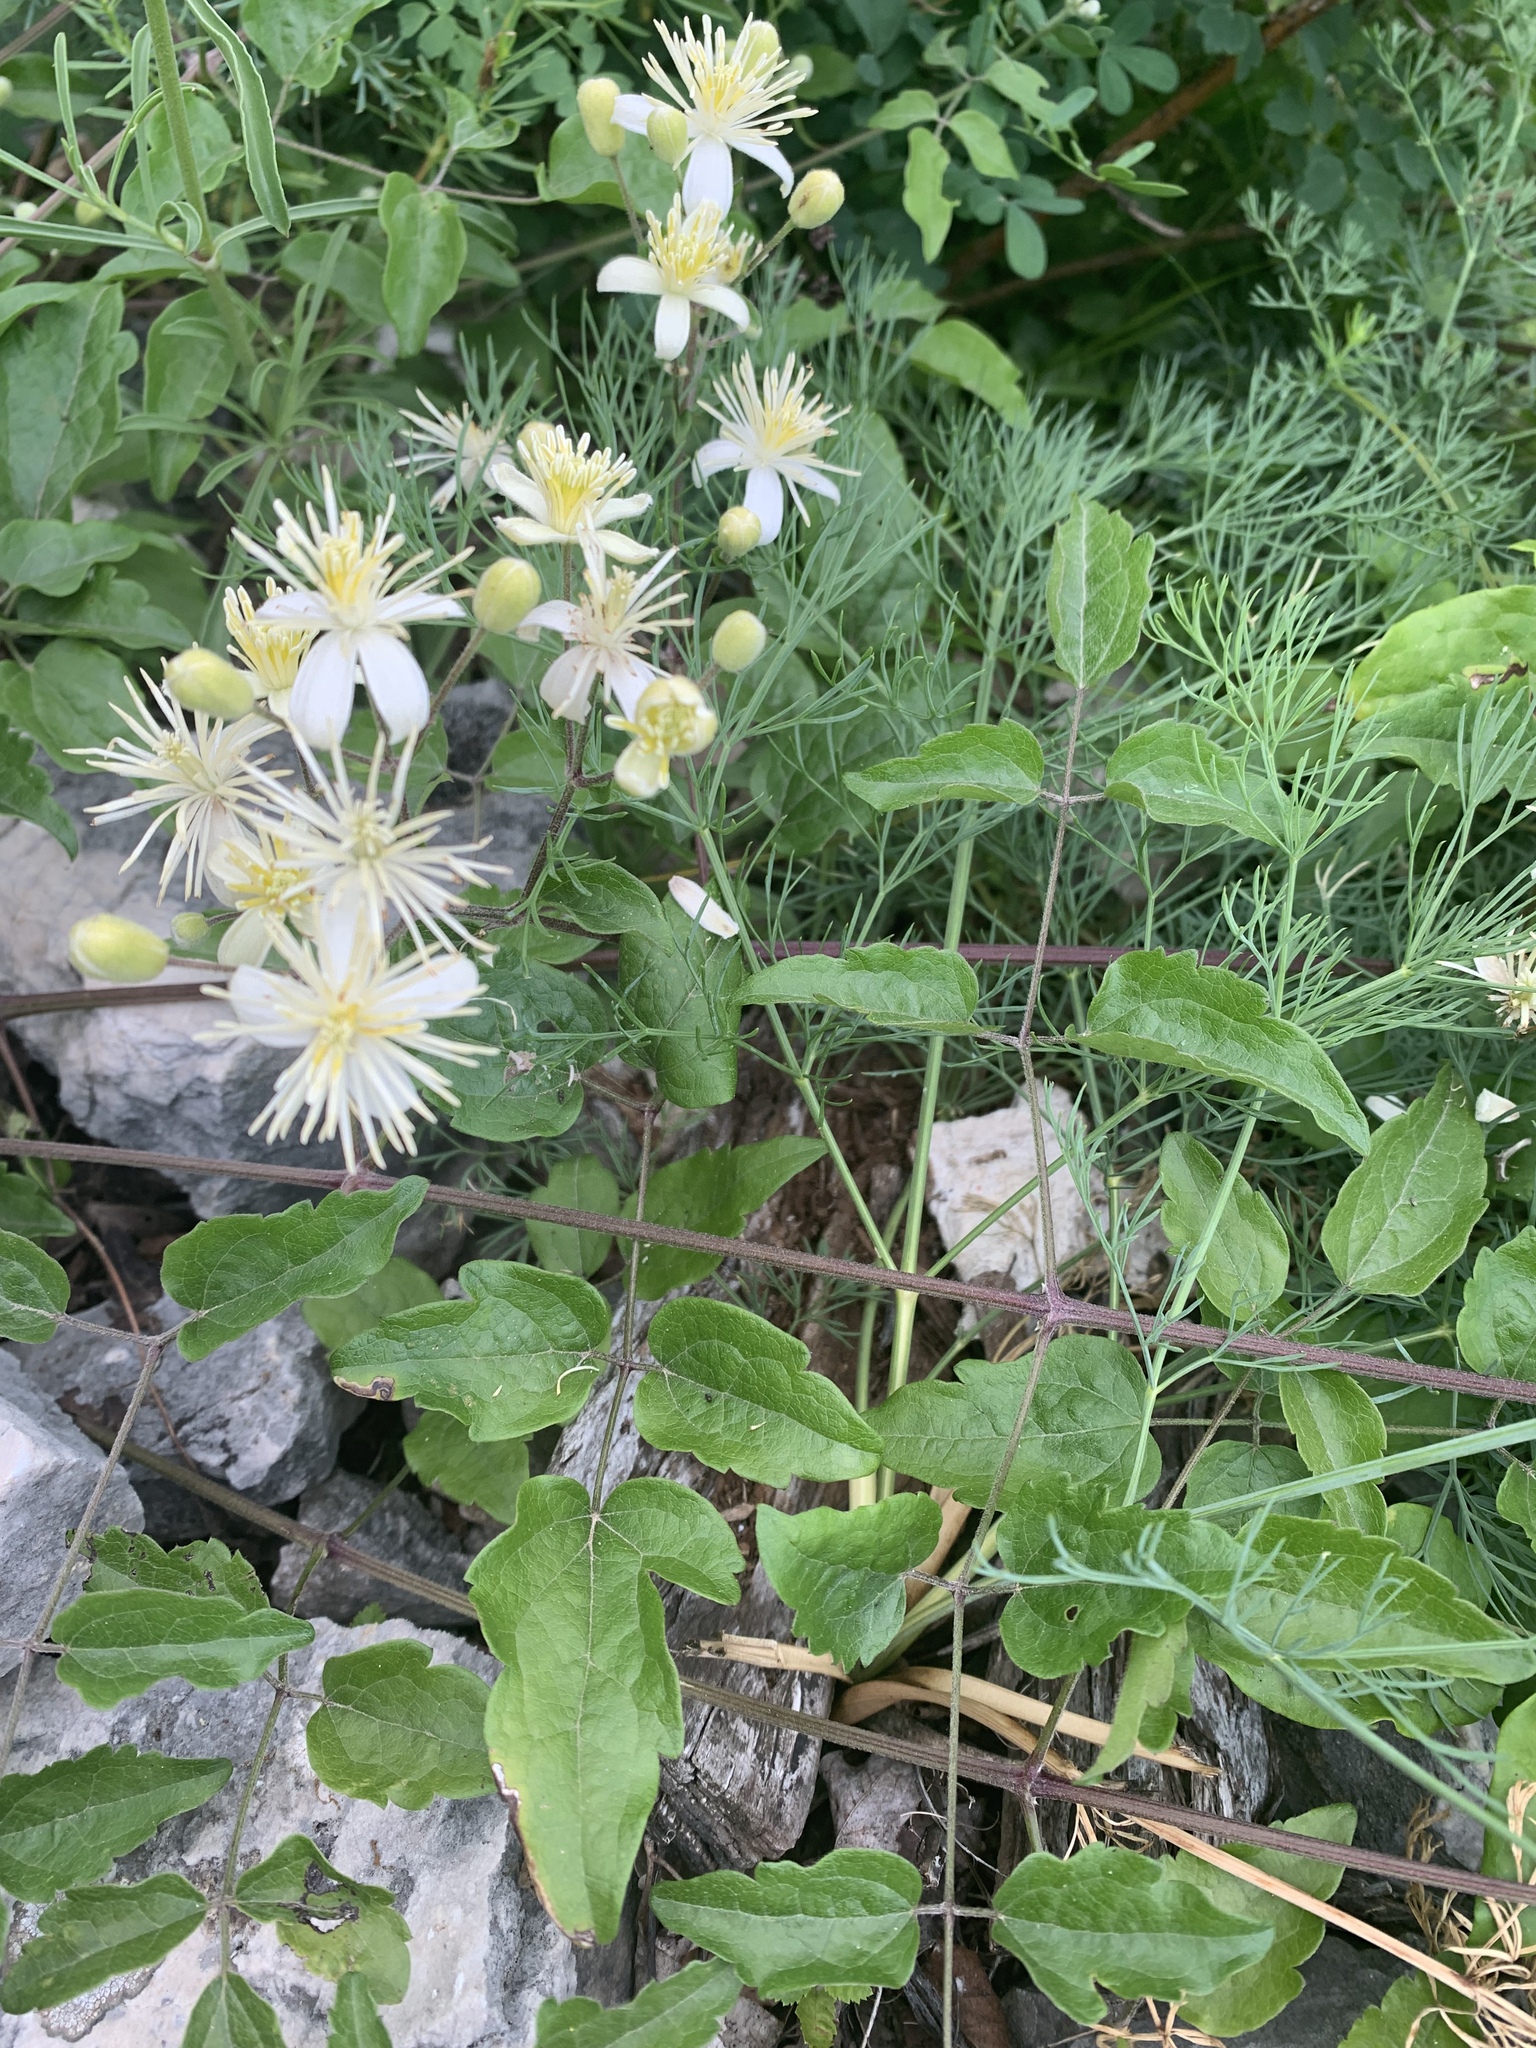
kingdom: Plantae
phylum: Tracheophyta
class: Magnoliopsida
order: Ranunculales
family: Ranunculaceae
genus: Clematis
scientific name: Clematis vitalba
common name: Evergreen clematis
